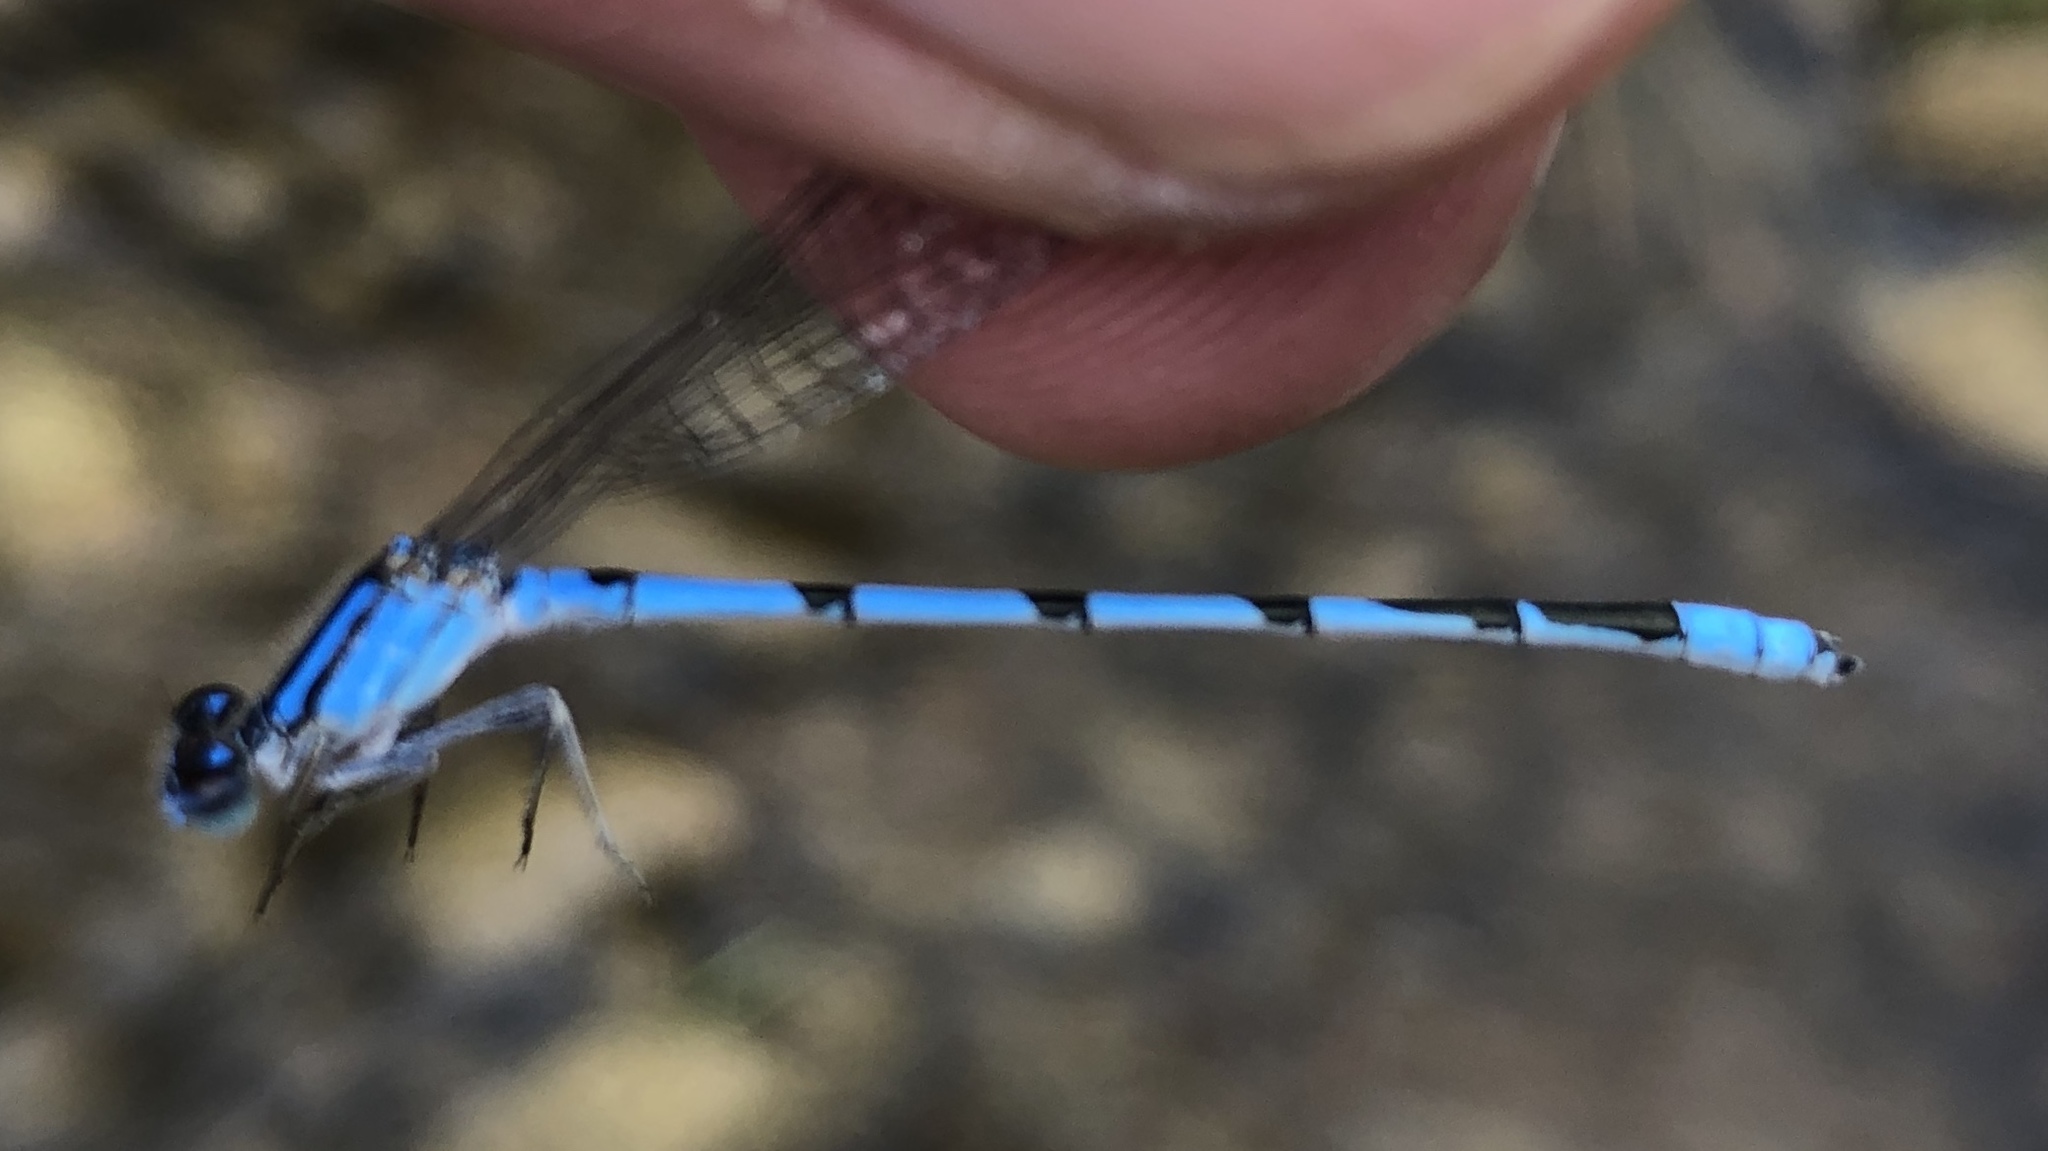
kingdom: Animalia
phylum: Arthropoda
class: Insecta
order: Odonata
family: Coenagrionidae
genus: Enallagma
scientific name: Enallagma civile
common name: Damselfly
